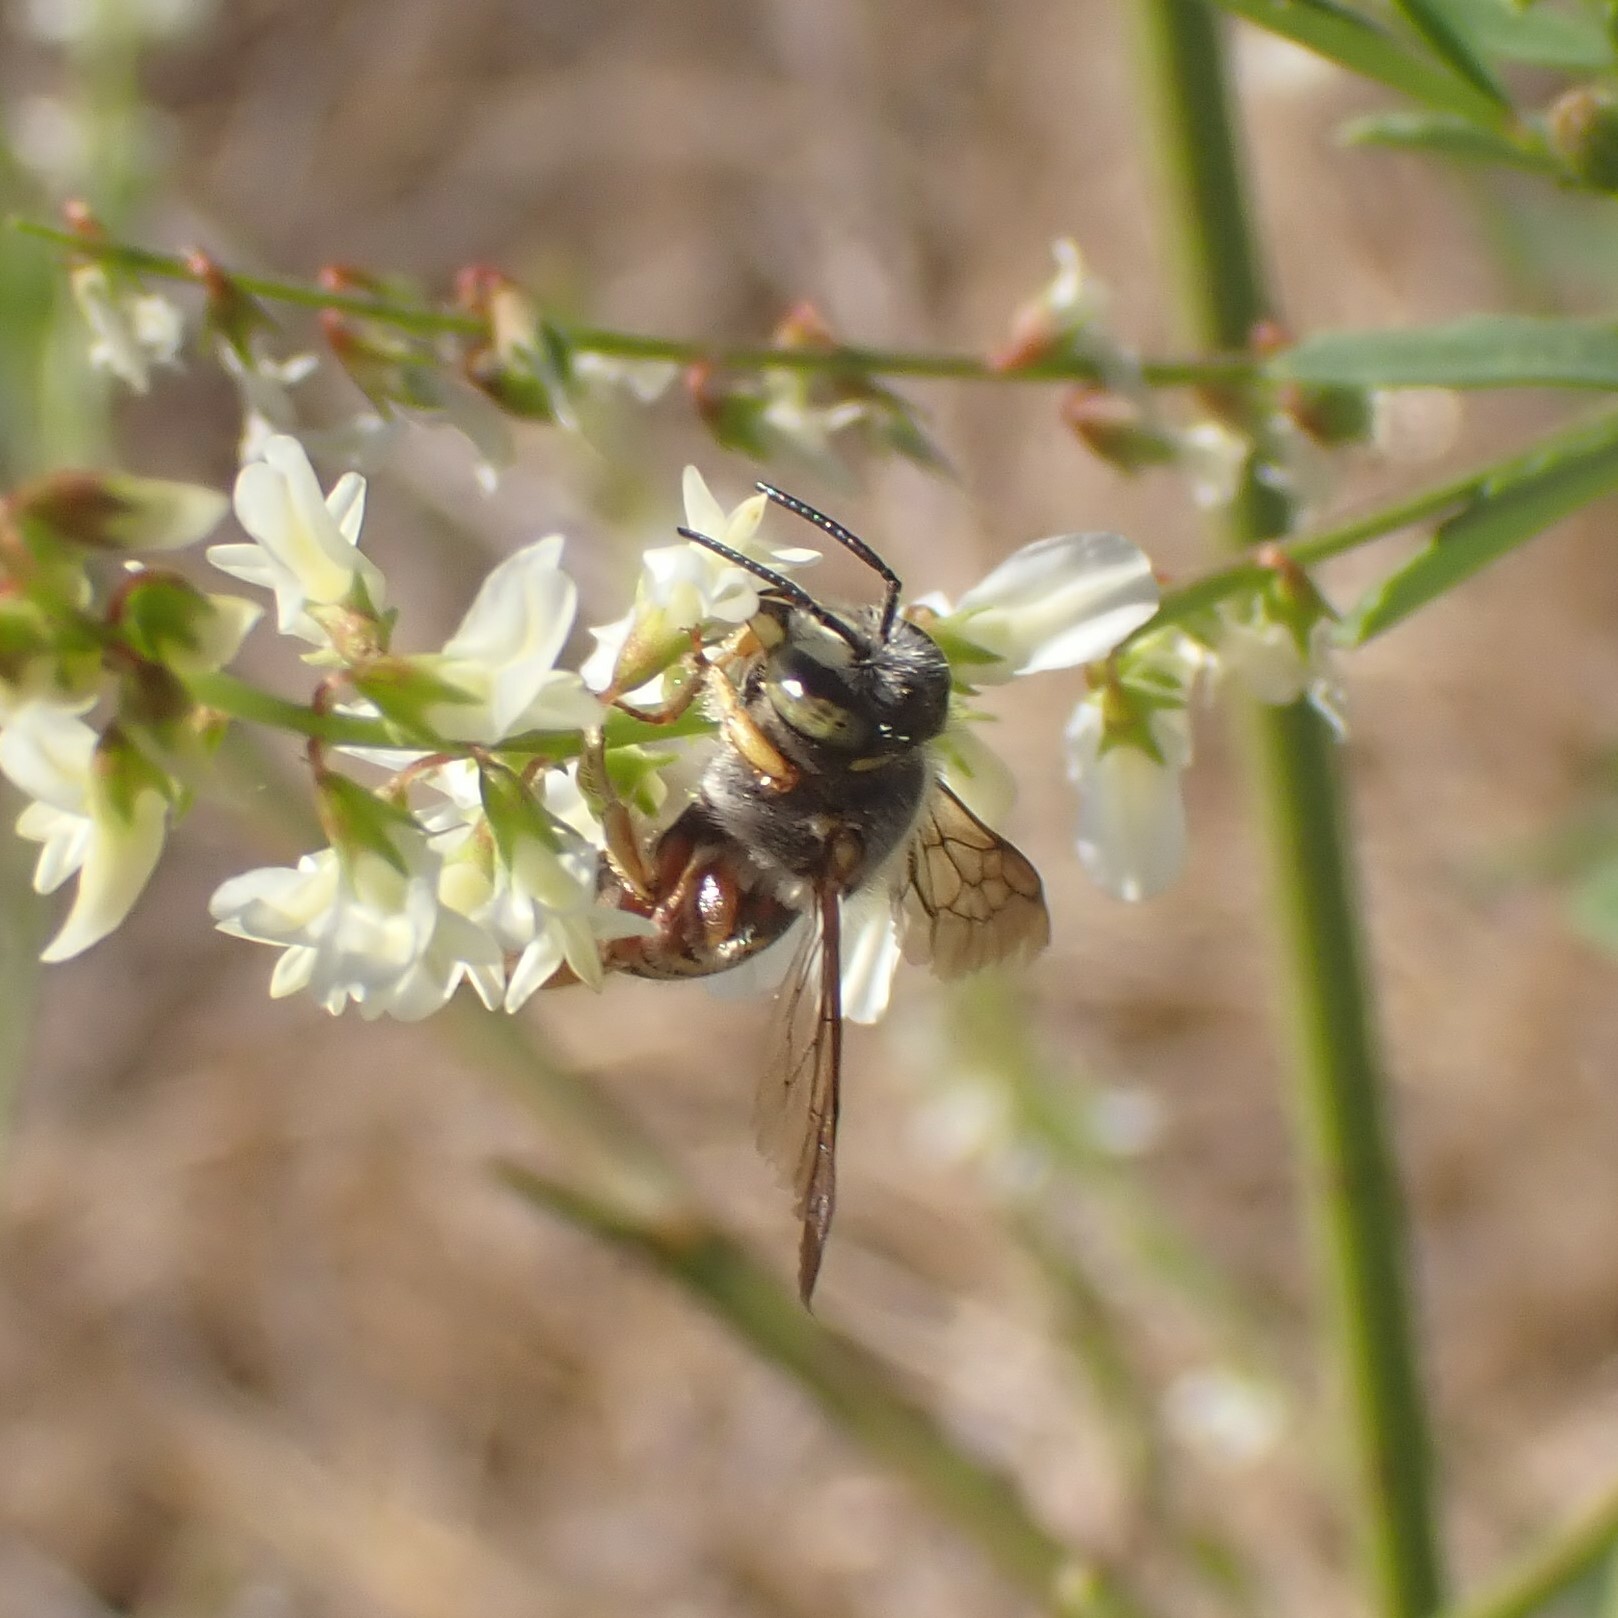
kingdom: Animalia
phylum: Arthropoda
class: Insecta
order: Hymenoptera
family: Megachilidae
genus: Anthidium
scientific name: Anthidium
